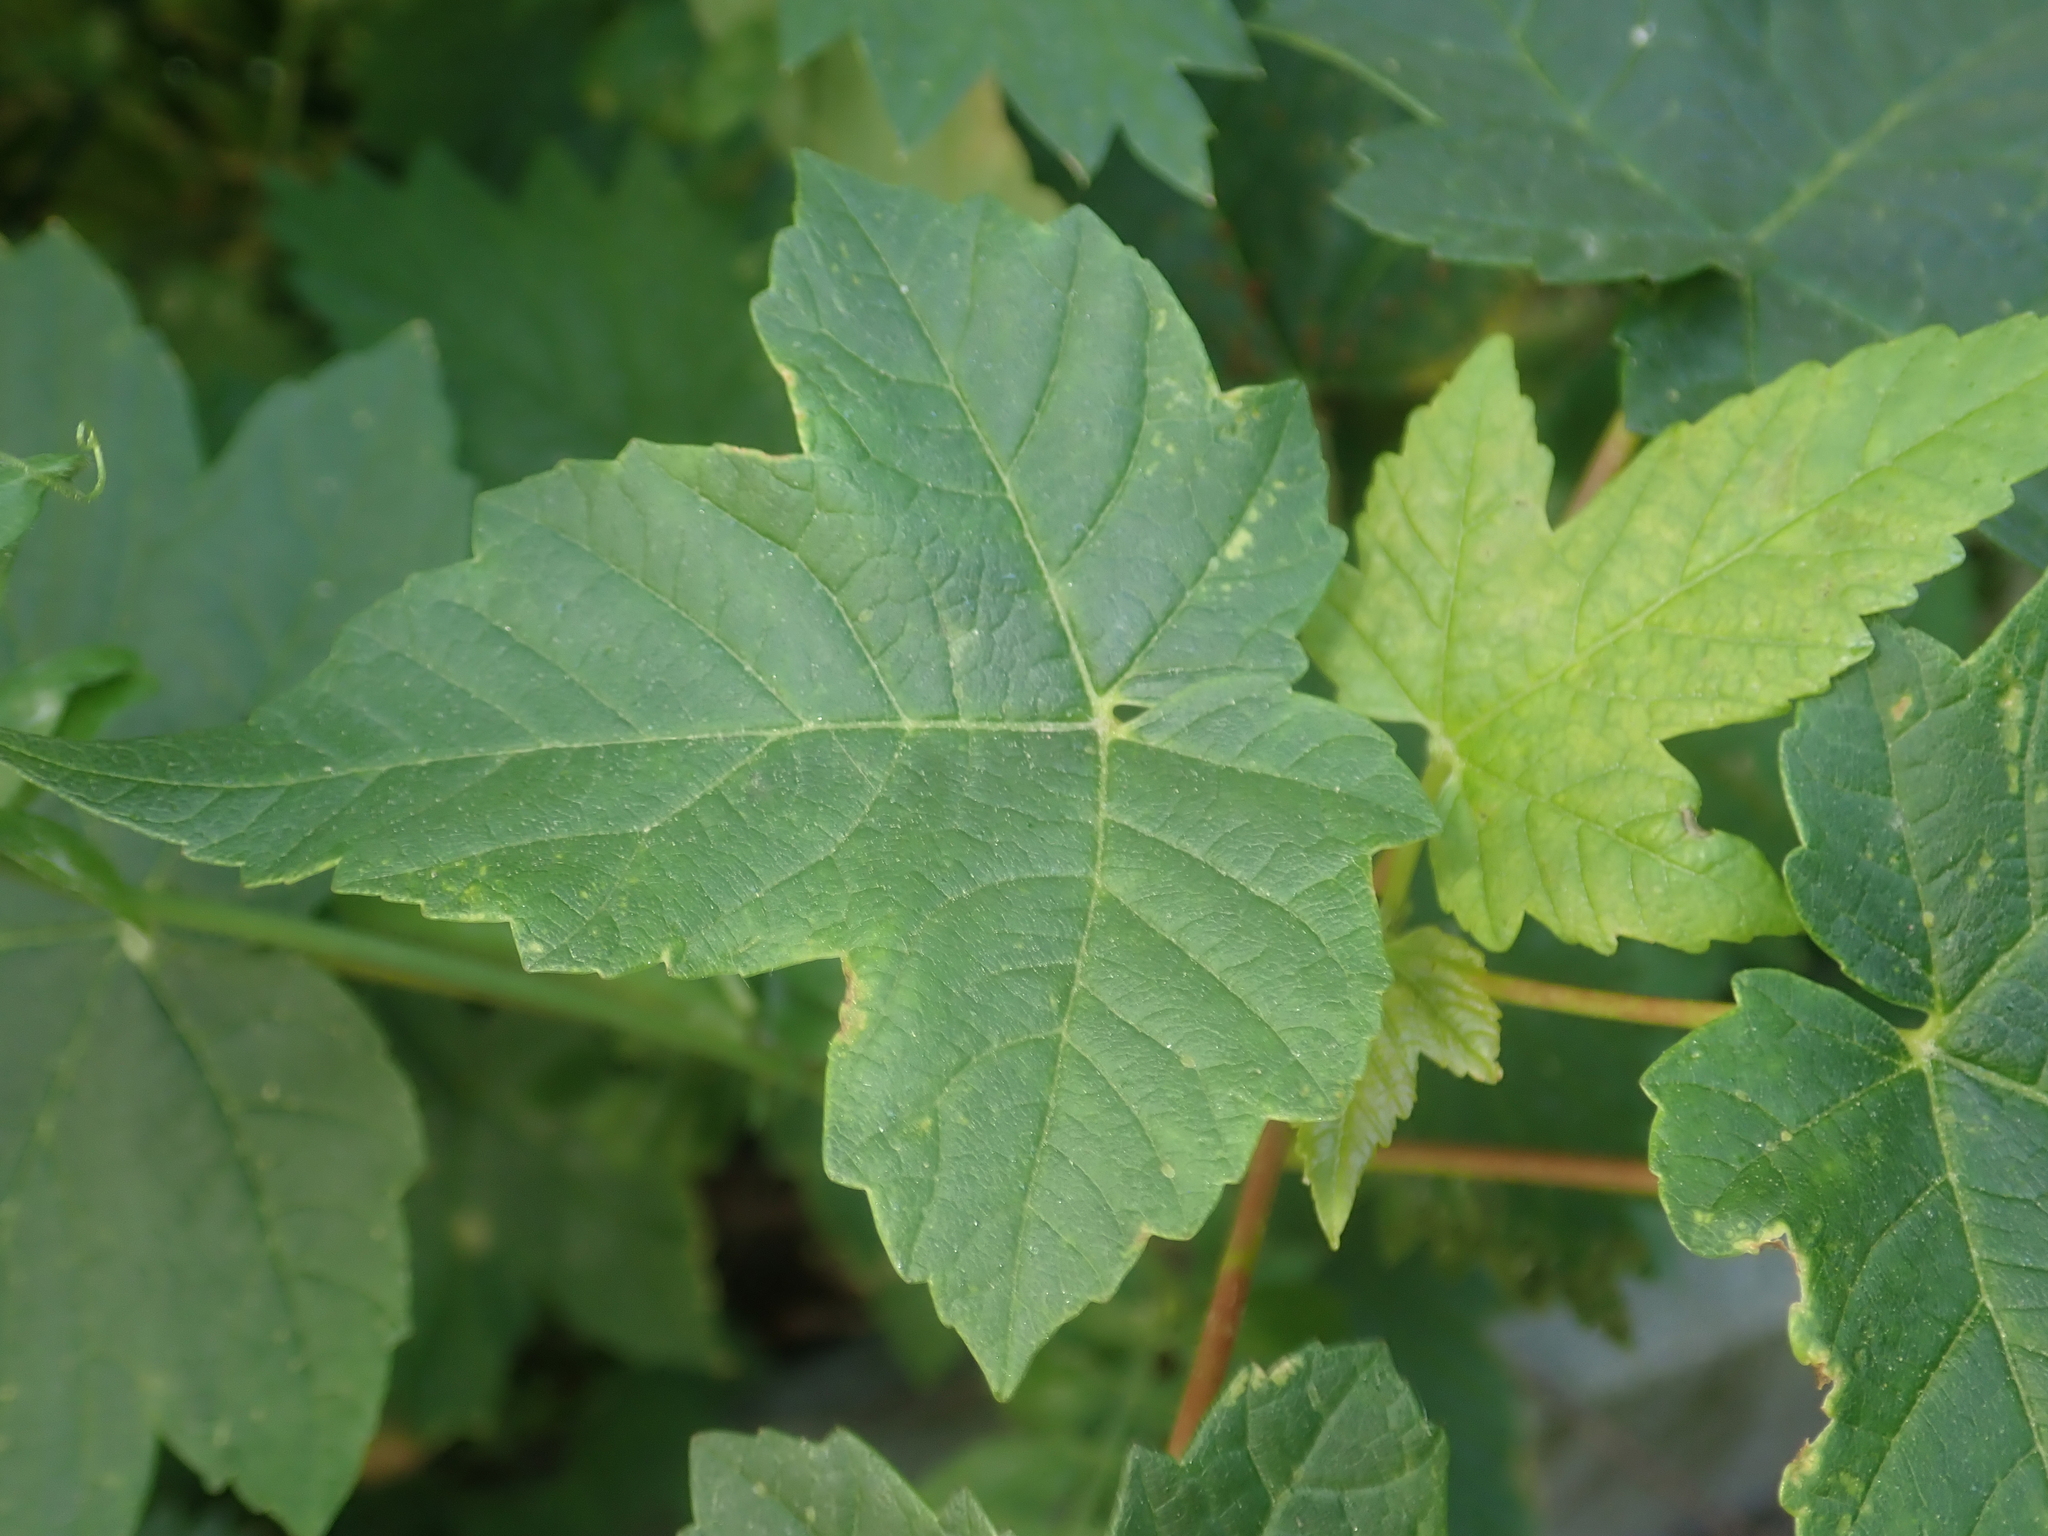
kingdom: Plantae
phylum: Tracheophyta
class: Magnoliopsida
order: Sapindales
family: Sapindaceae
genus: Acer
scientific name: Acer pseudoplatanus
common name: Sycamore
